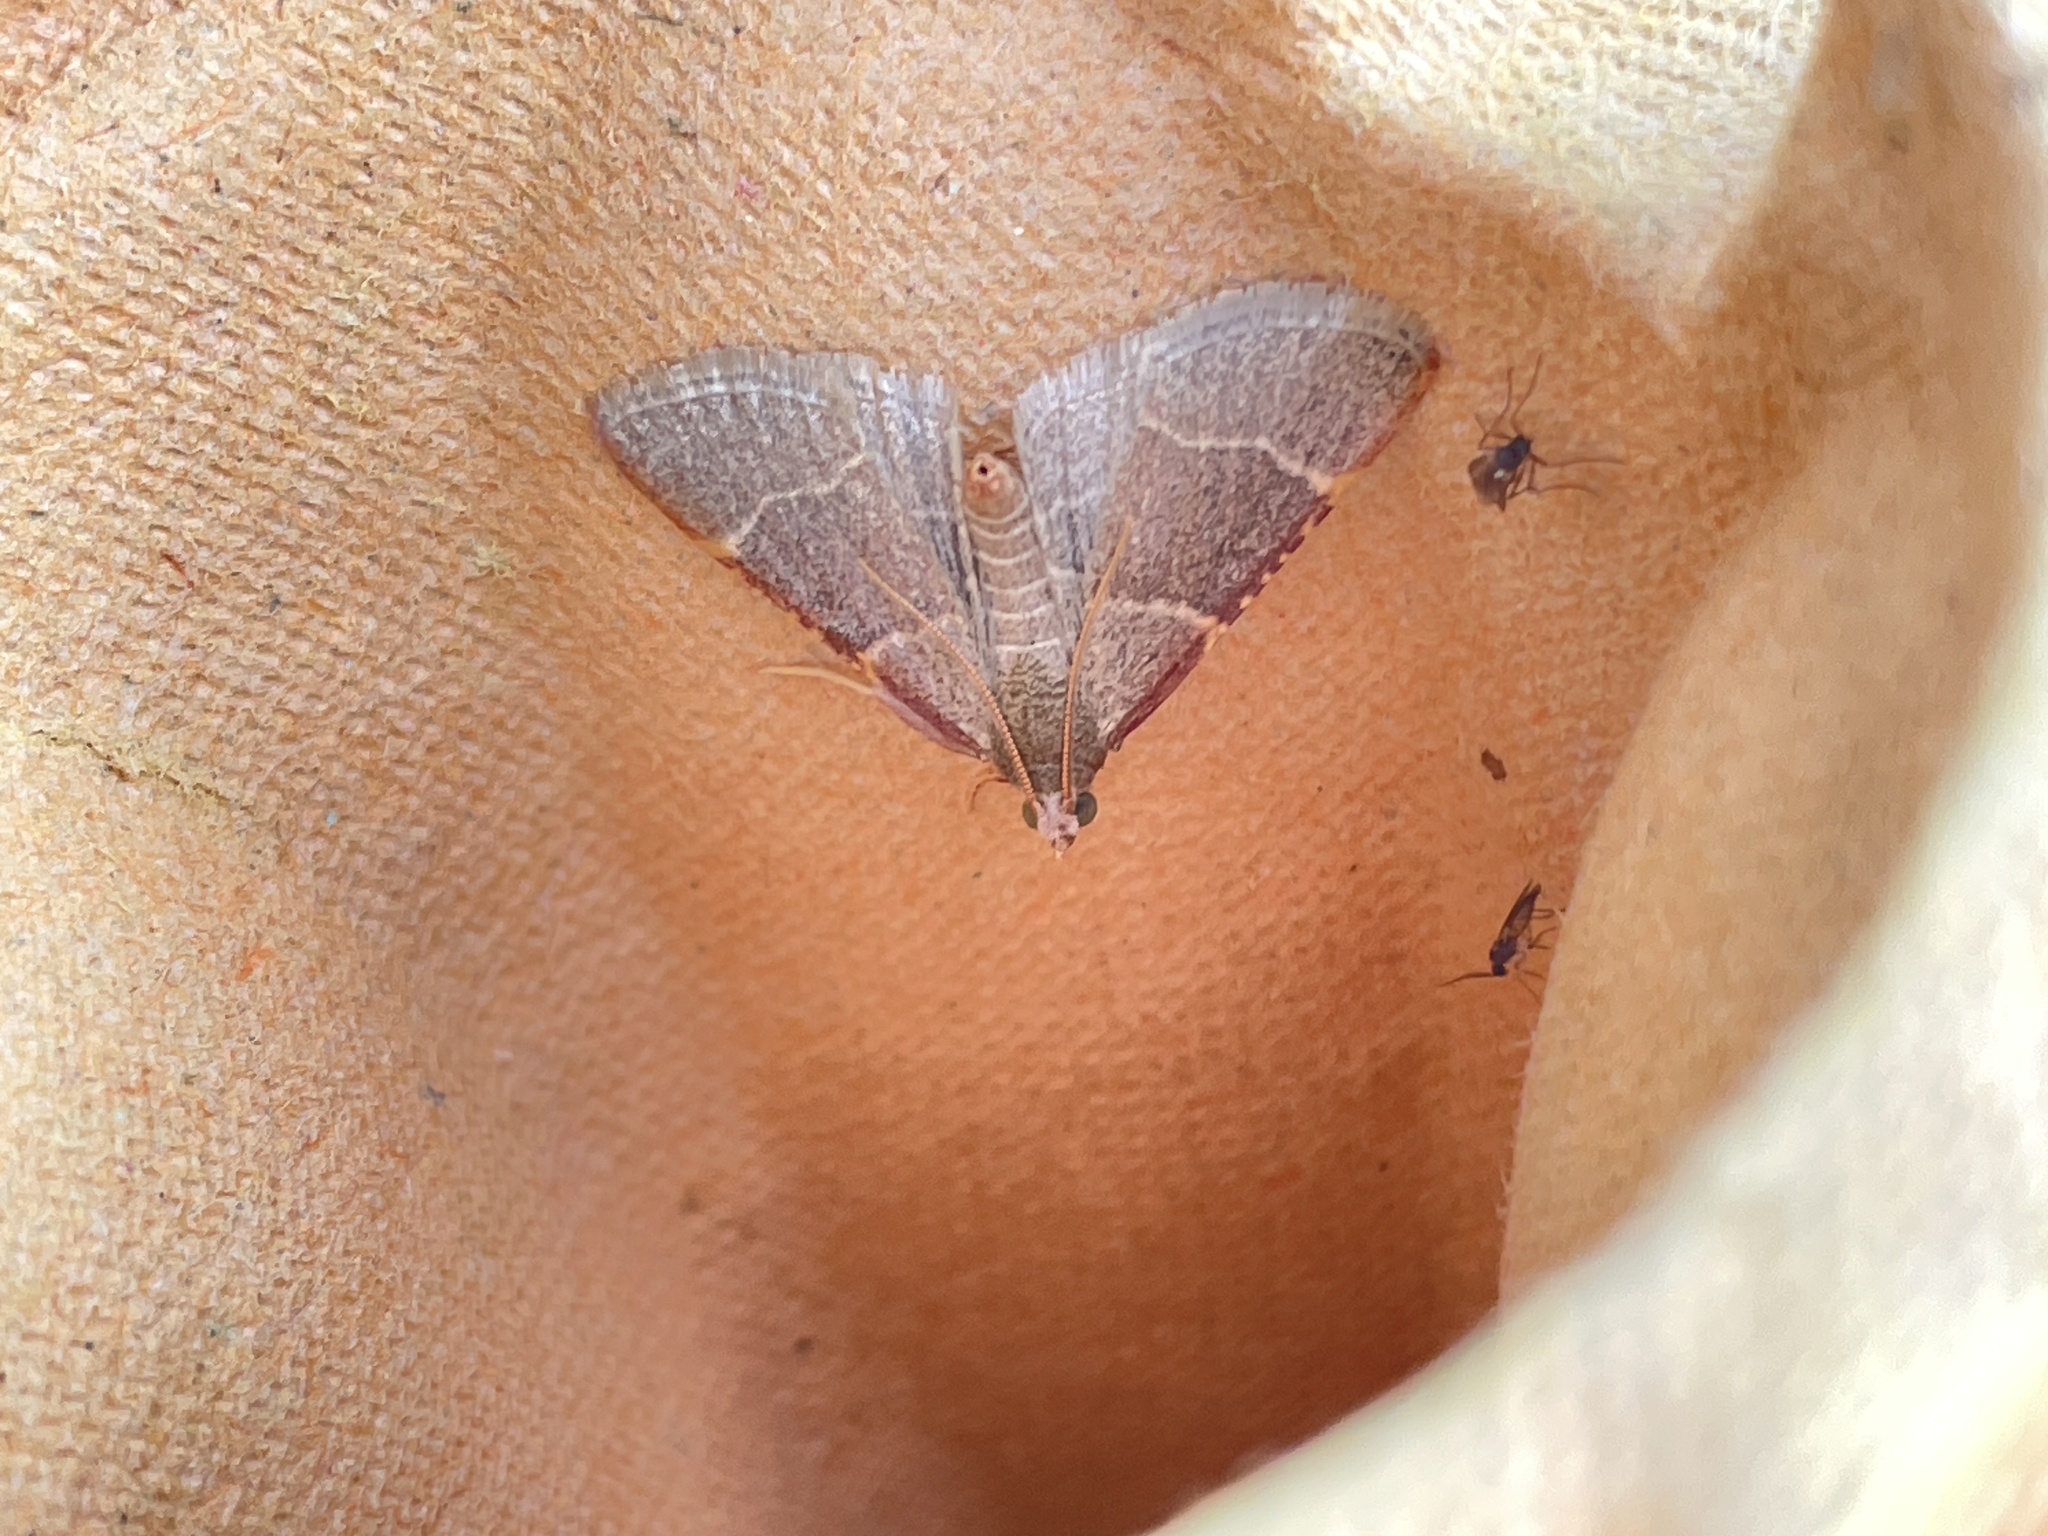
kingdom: Animalia
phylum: Arthropoda
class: Insecta
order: Lepidoptera
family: Pyralidae
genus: Hypsopygia
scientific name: Hypsopygia glaucinalis
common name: Double-striped tabby
